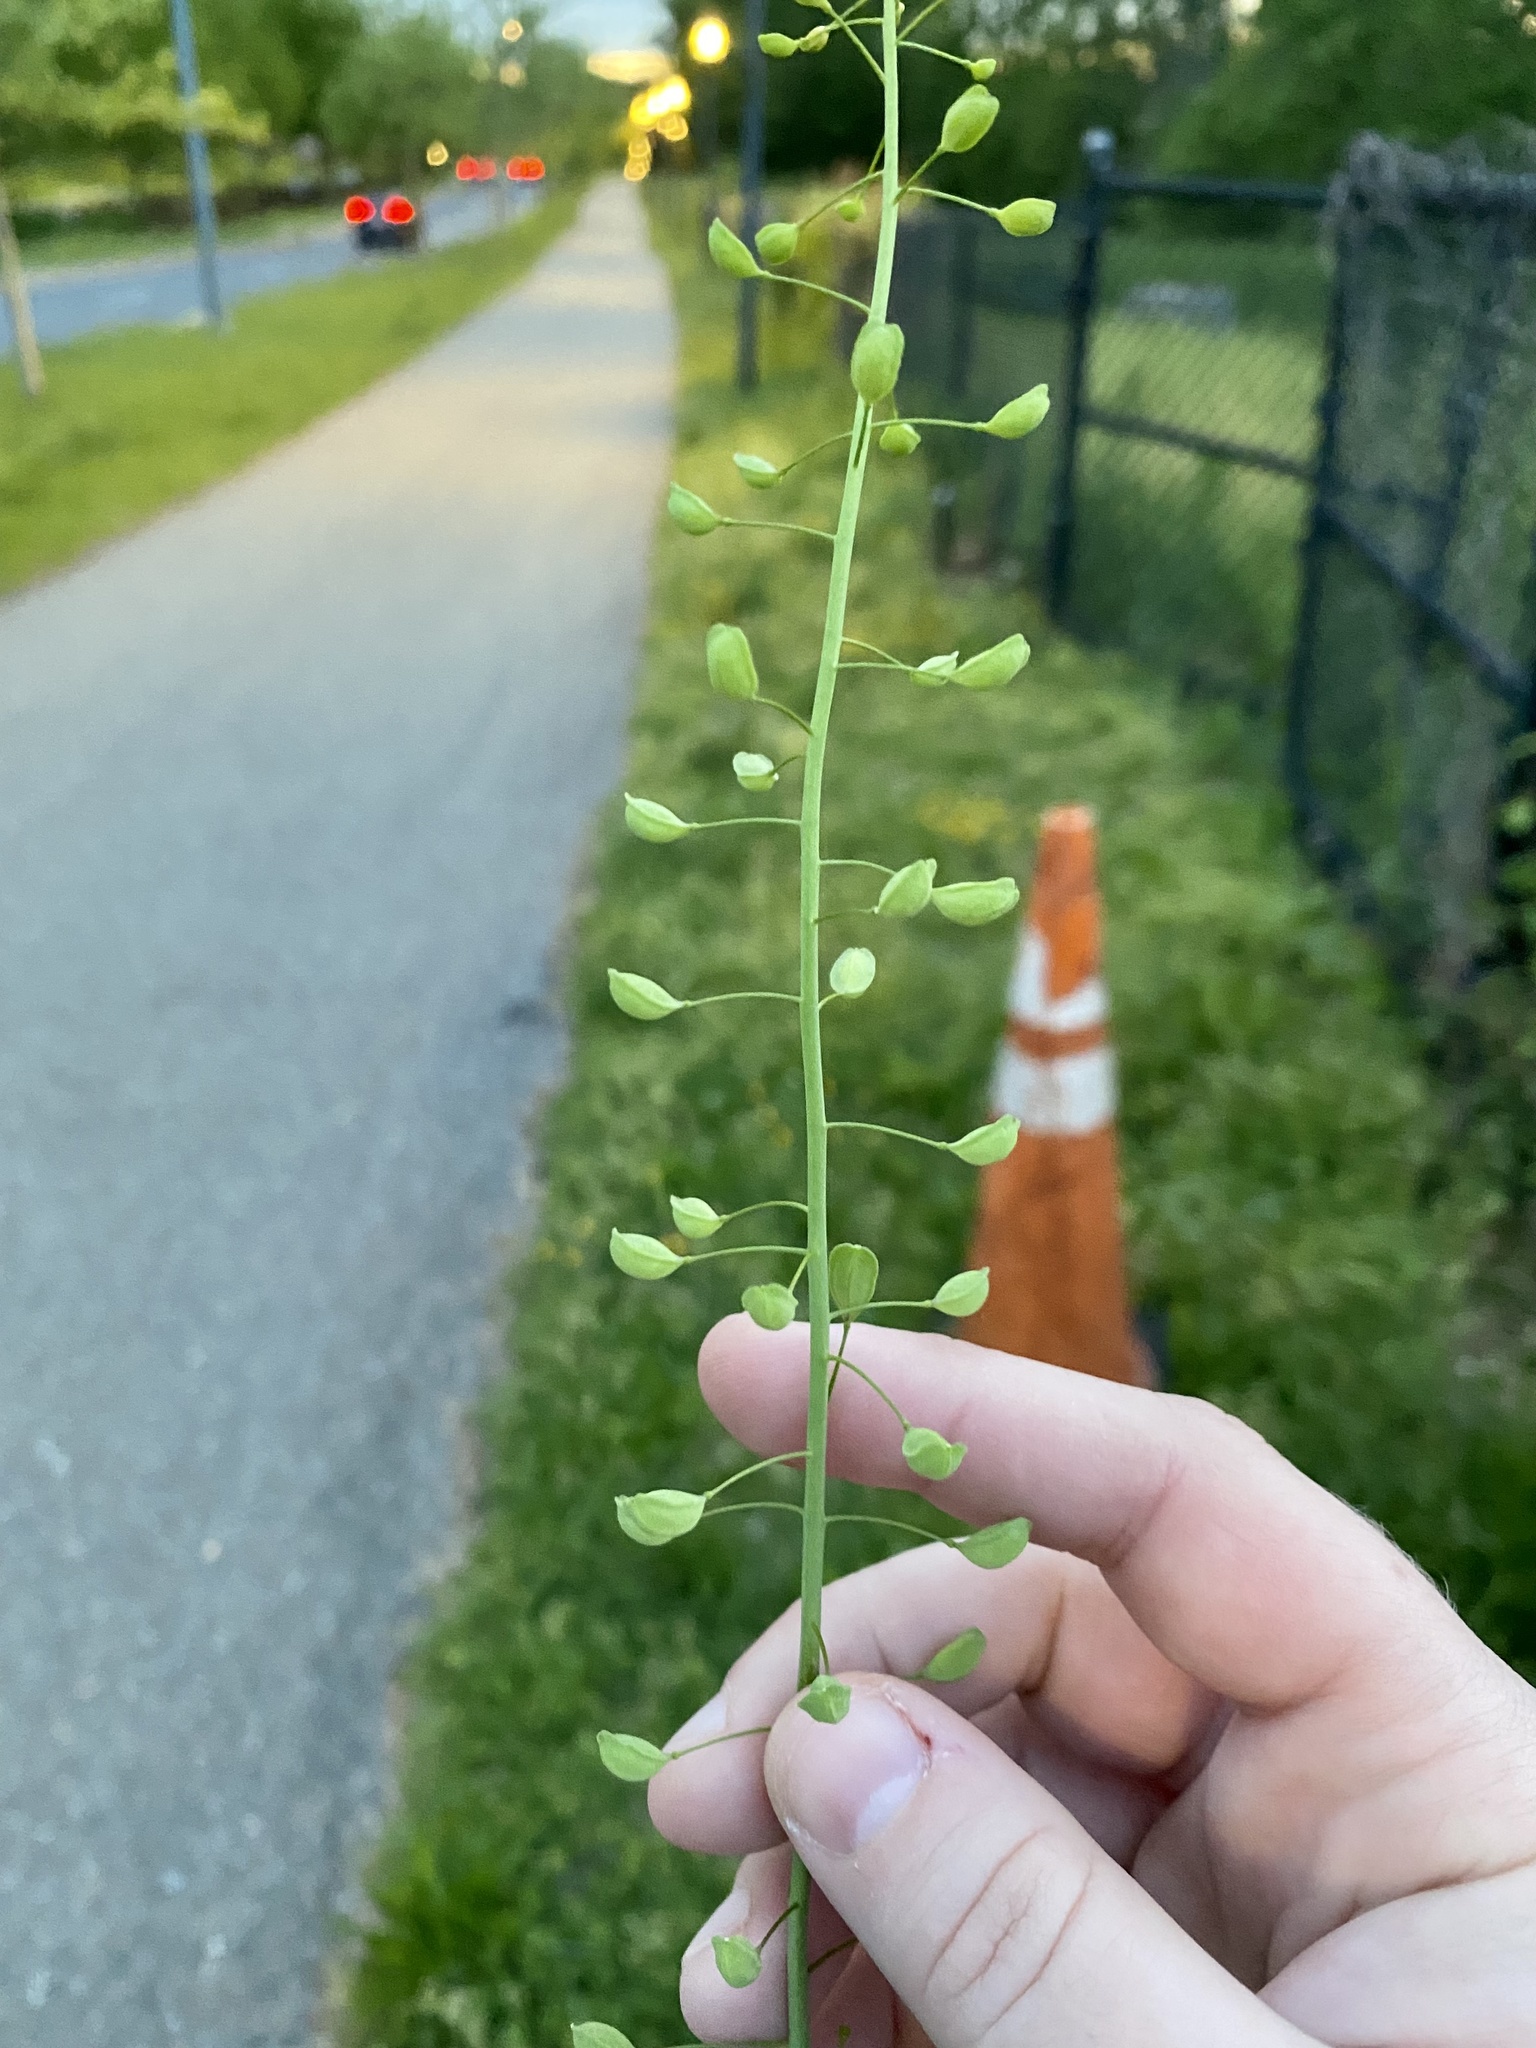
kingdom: Plantae
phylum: Tracheophyta
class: Magnoliopsida
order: Brassicales
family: Brassicaceae
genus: Mummenhoffia
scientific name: Mummenhoffia alliacea
